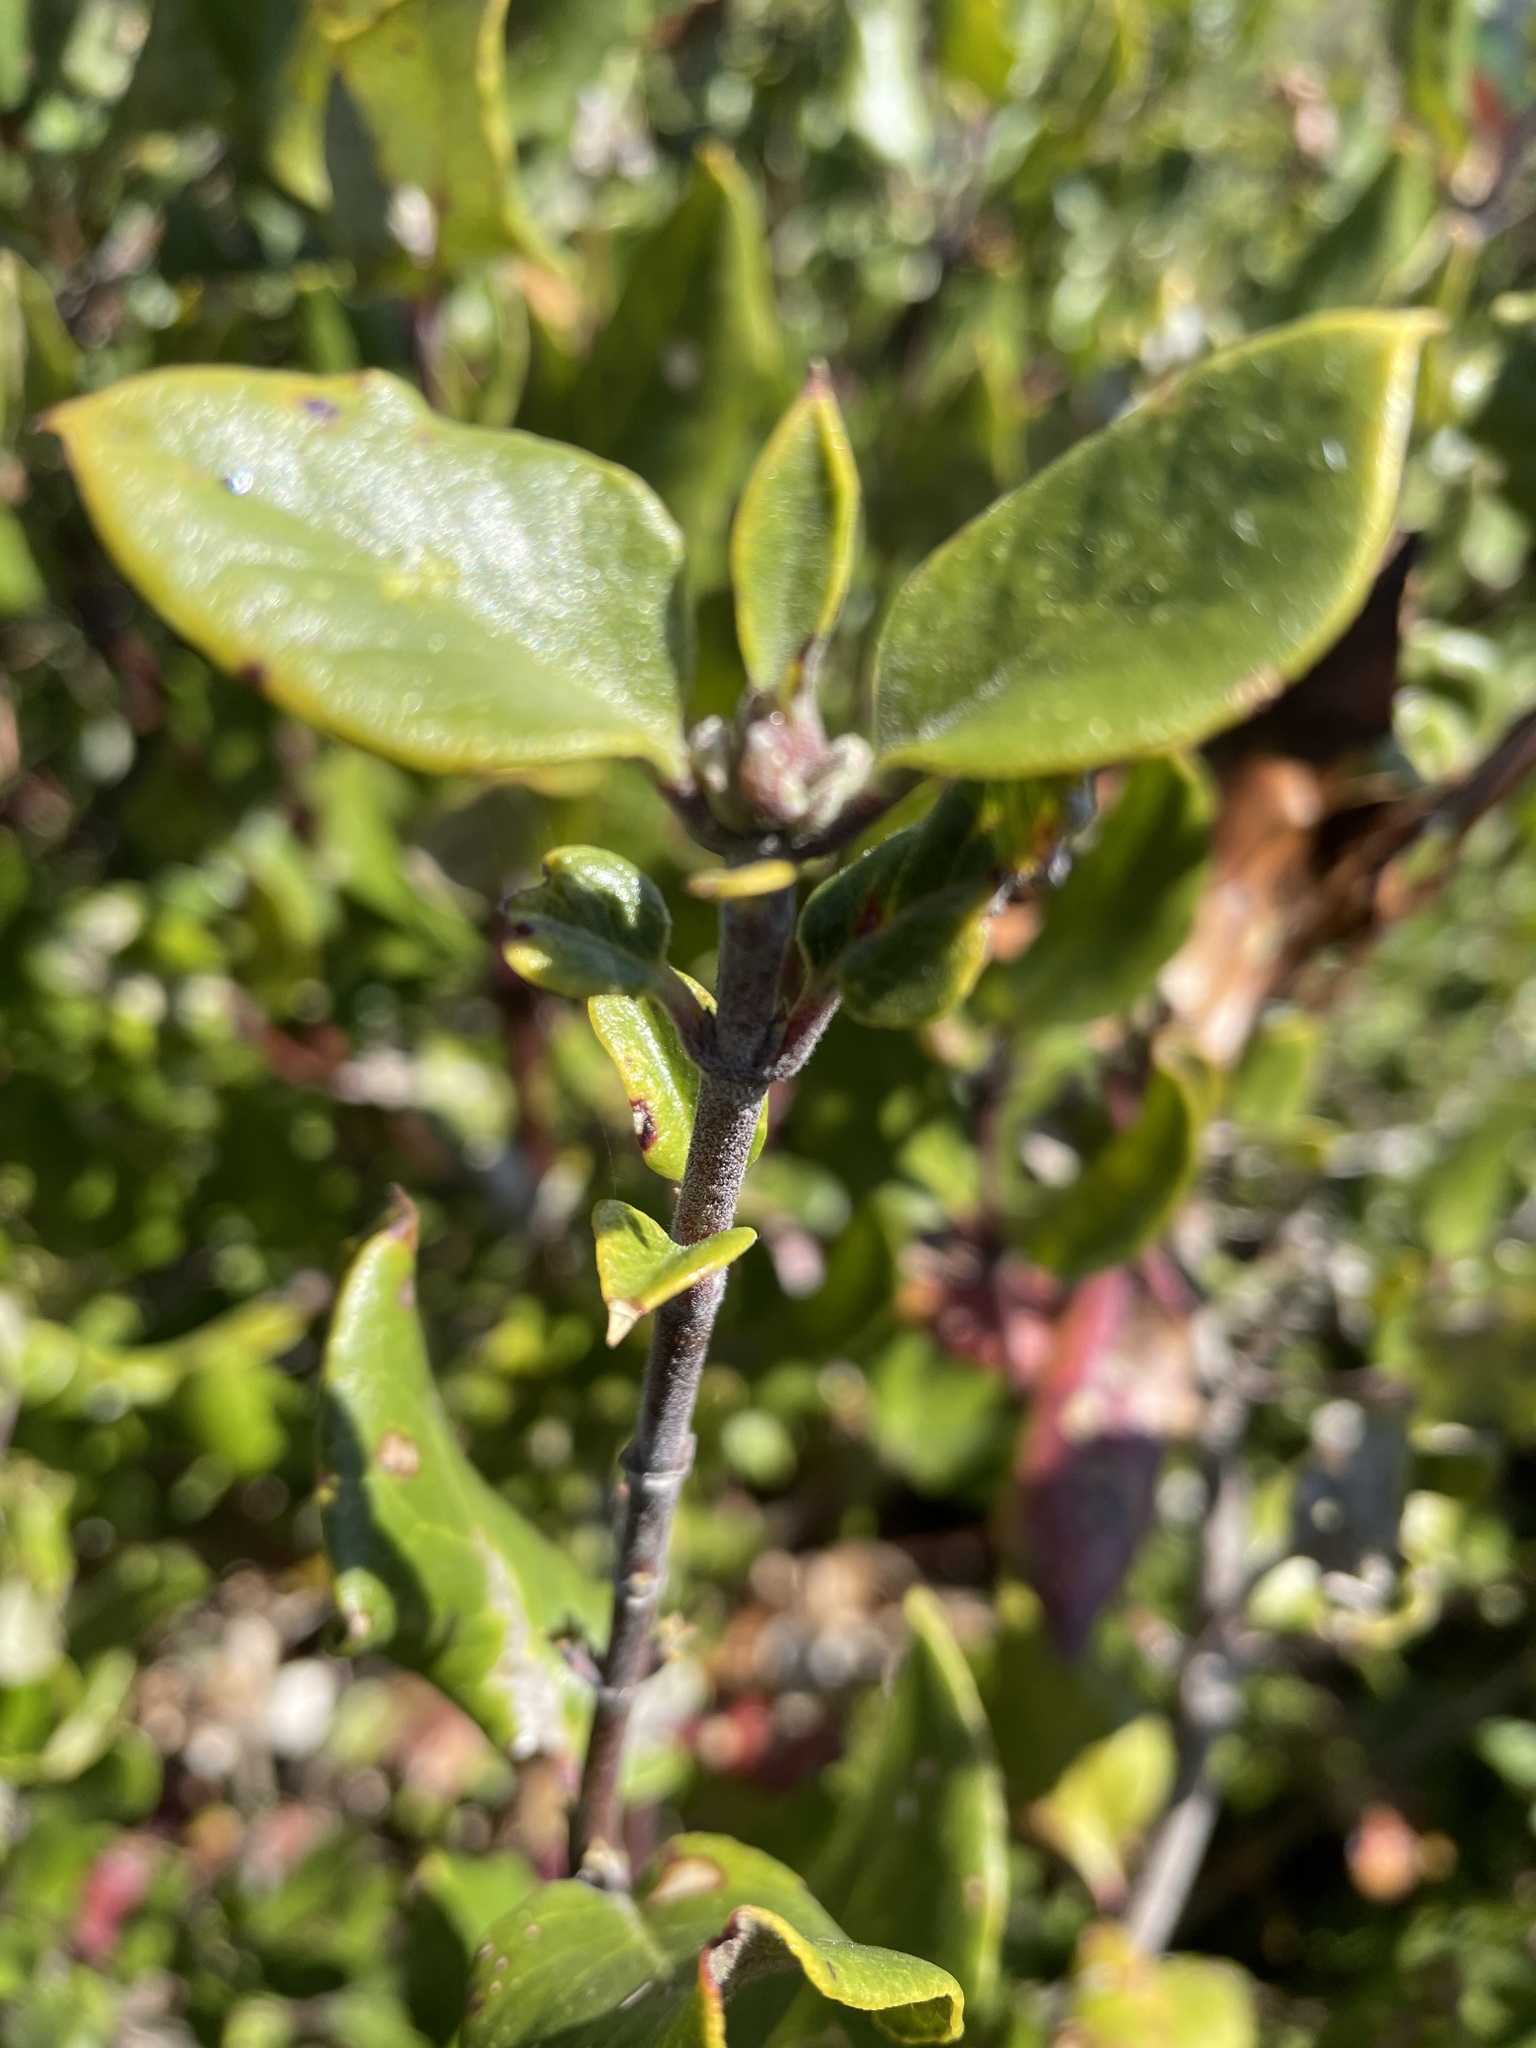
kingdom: Plantae
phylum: Tracheophyta
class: Magnoliopsida
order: Garryales
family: Garryaceae
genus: Garrya
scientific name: Garrya elliptica
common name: Silk-tassel
